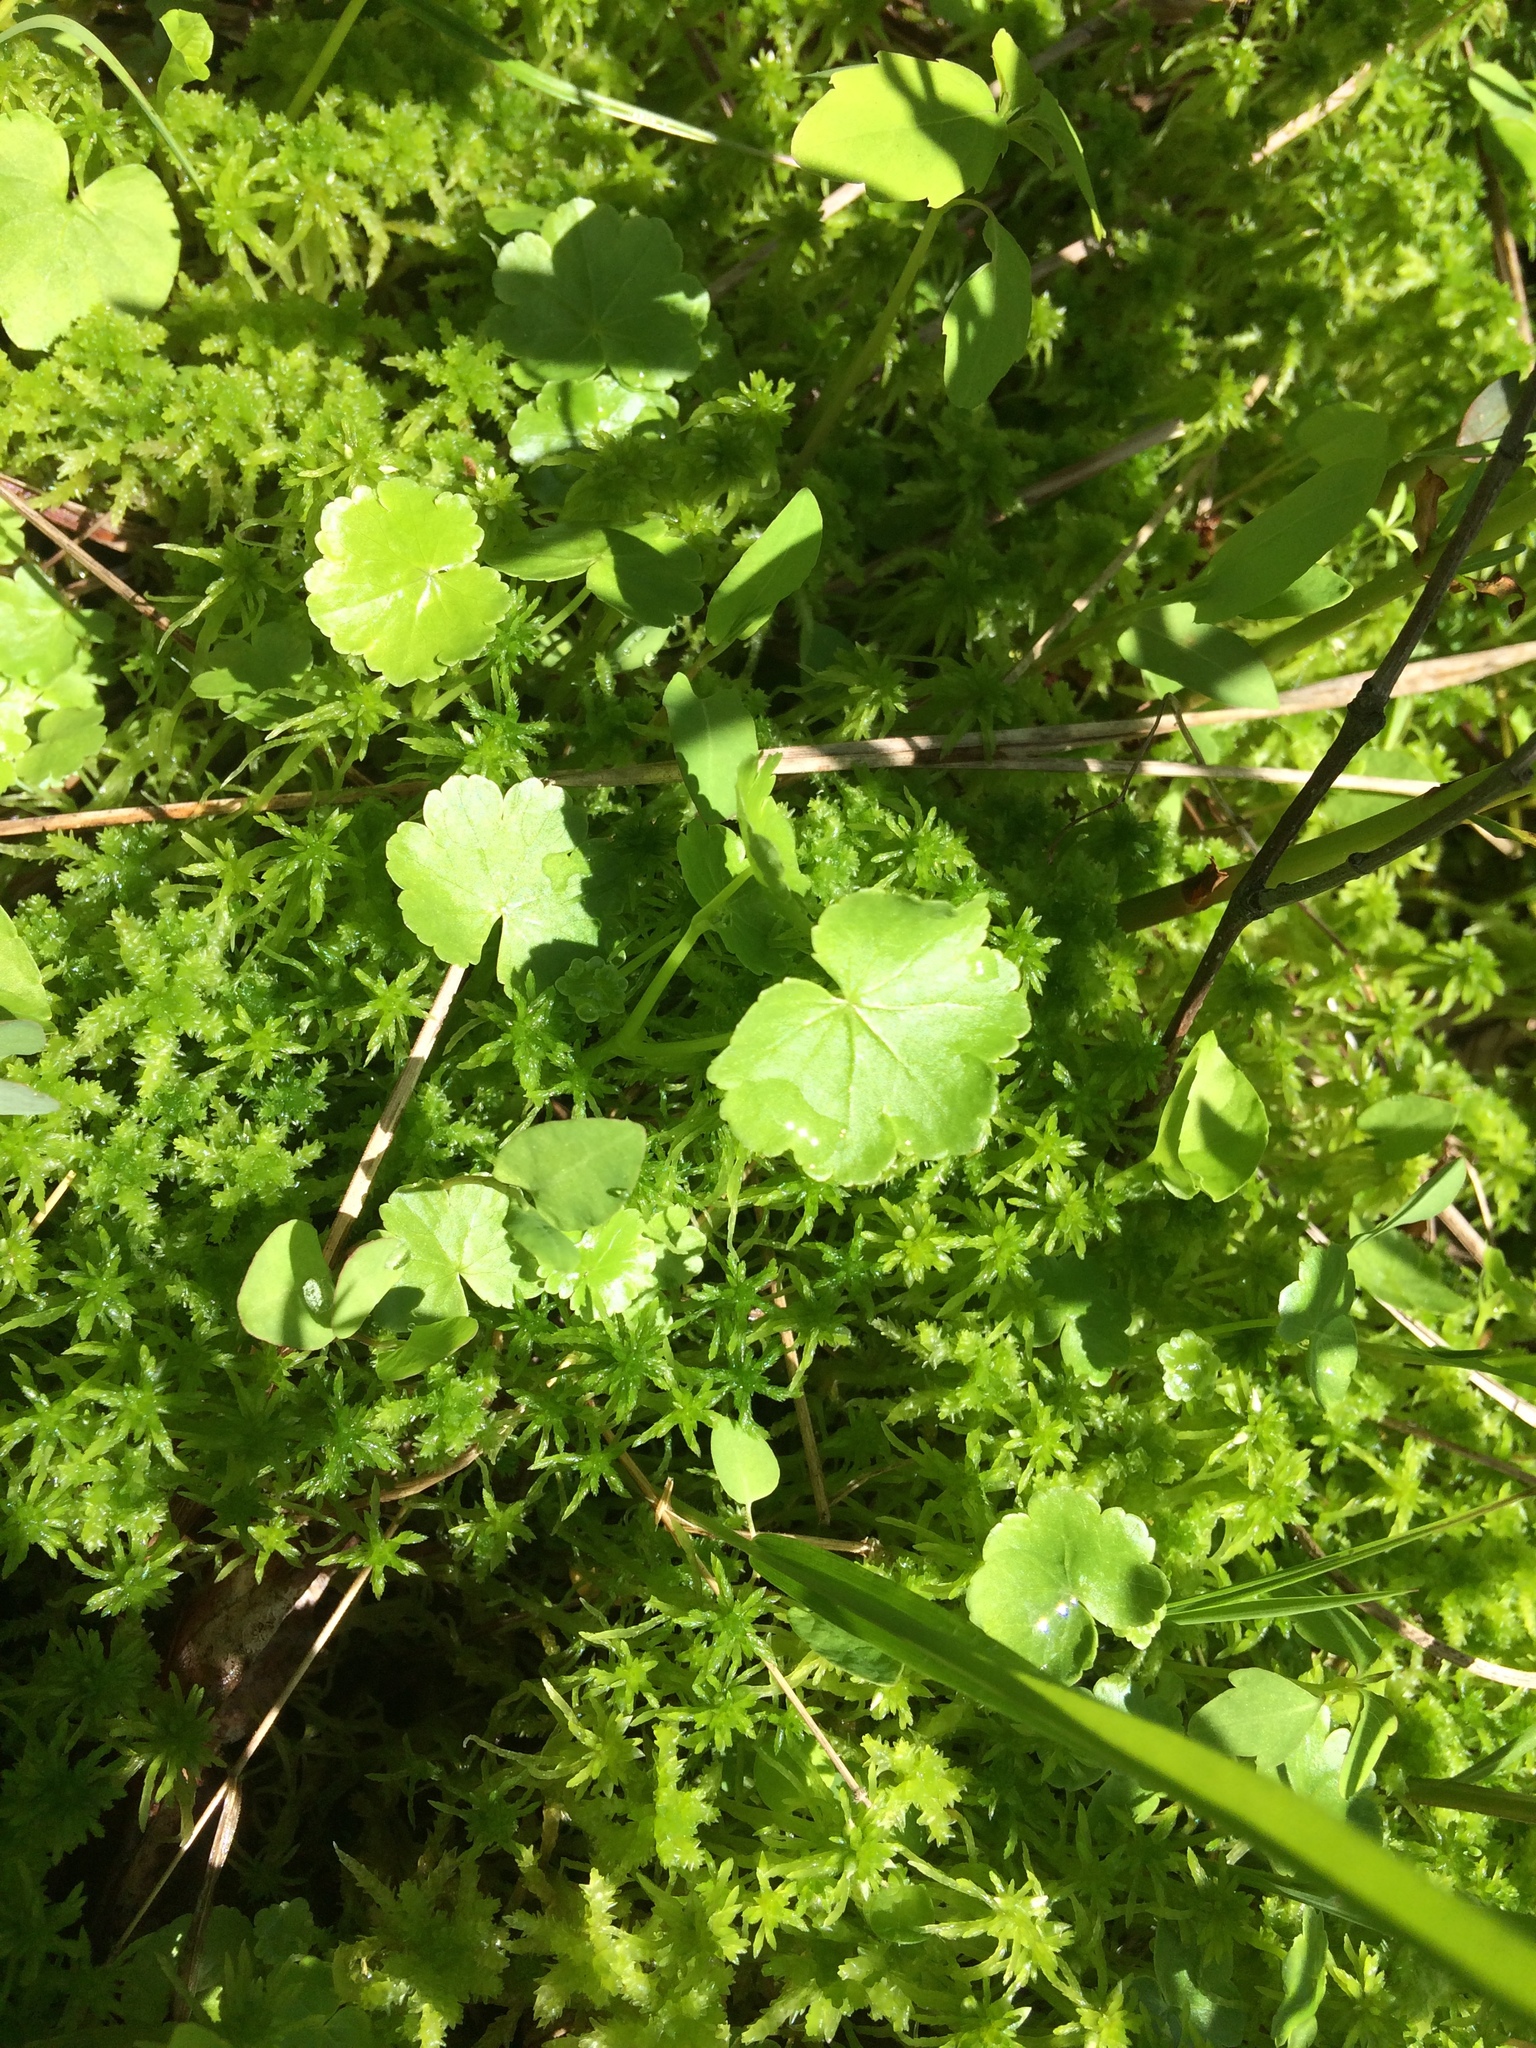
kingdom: Plantae
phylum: Tracheophyta
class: Magnoliopsida
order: Apiales
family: Araliaceae
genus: Hydrocotyle
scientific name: Hydrocotyle americana
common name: American water-pennywort
